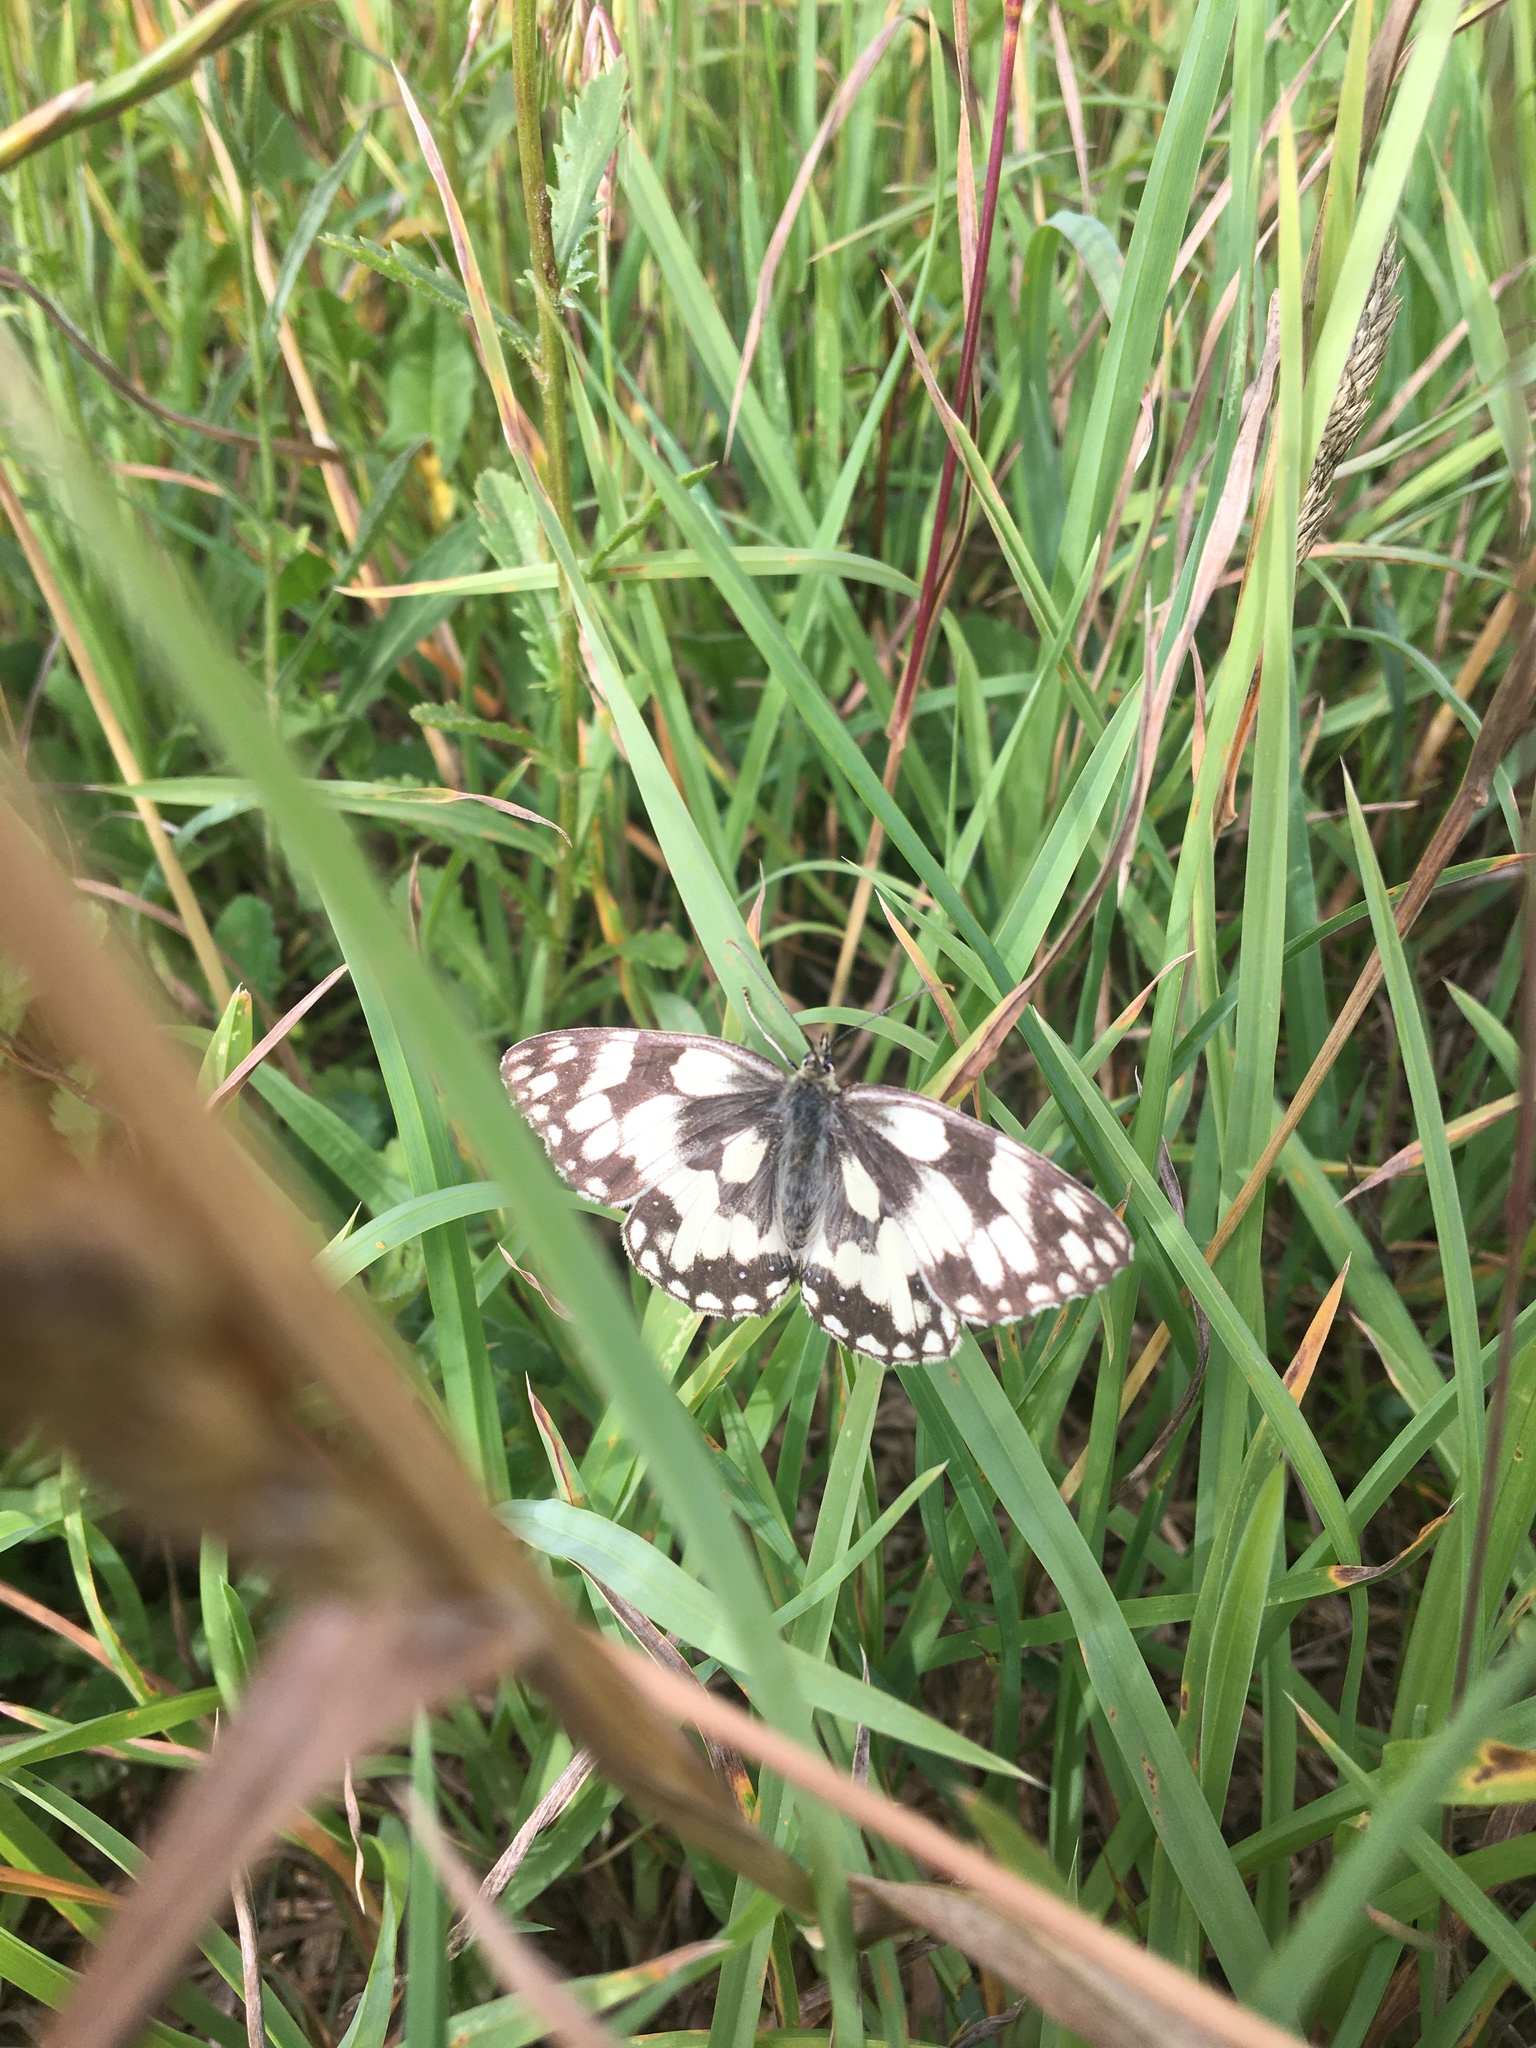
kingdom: Animalia
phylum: Arthropoda
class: Insecta
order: Lepidoptera
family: Nymphalidae
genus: Melanargia
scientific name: Melanargia galathea
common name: Marbled white
